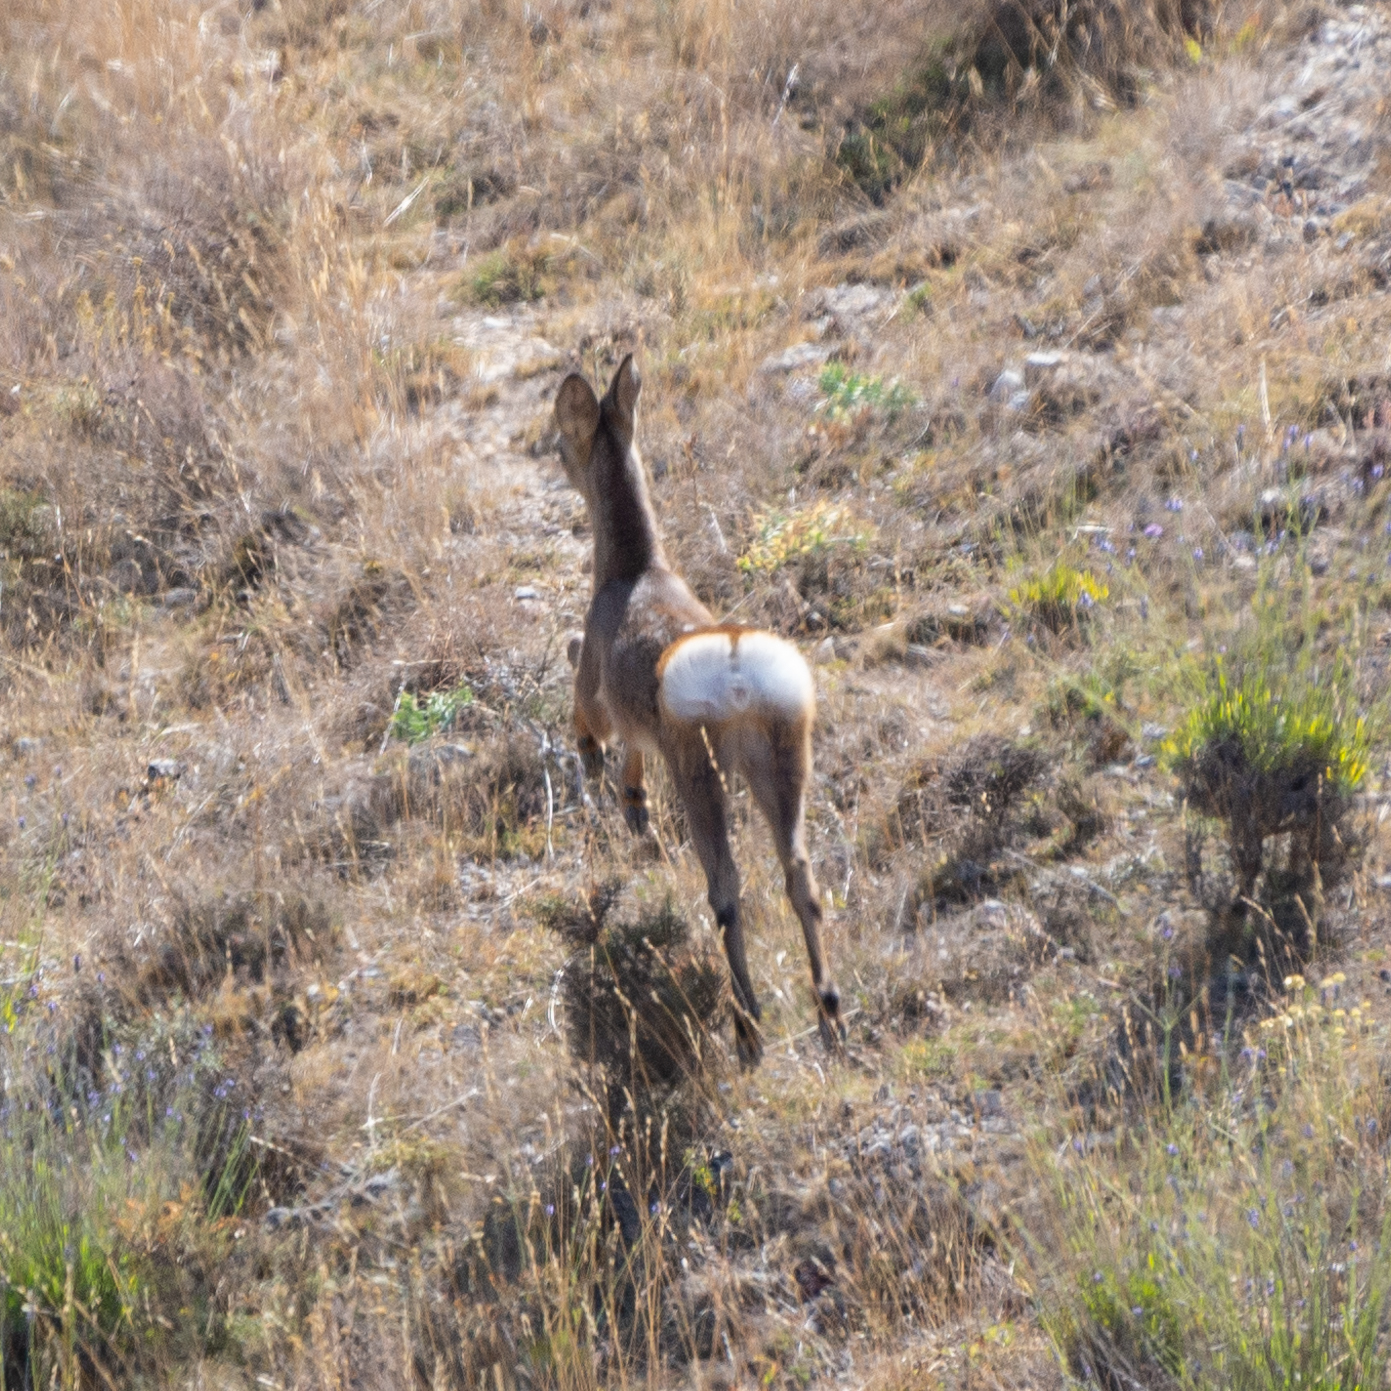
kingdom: Animalia
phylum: Chordata
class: Mammalia
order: Artiodactyla
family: Cervidae
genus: Capreolus
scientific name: Capreolus capreolus
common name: Western roe deer
